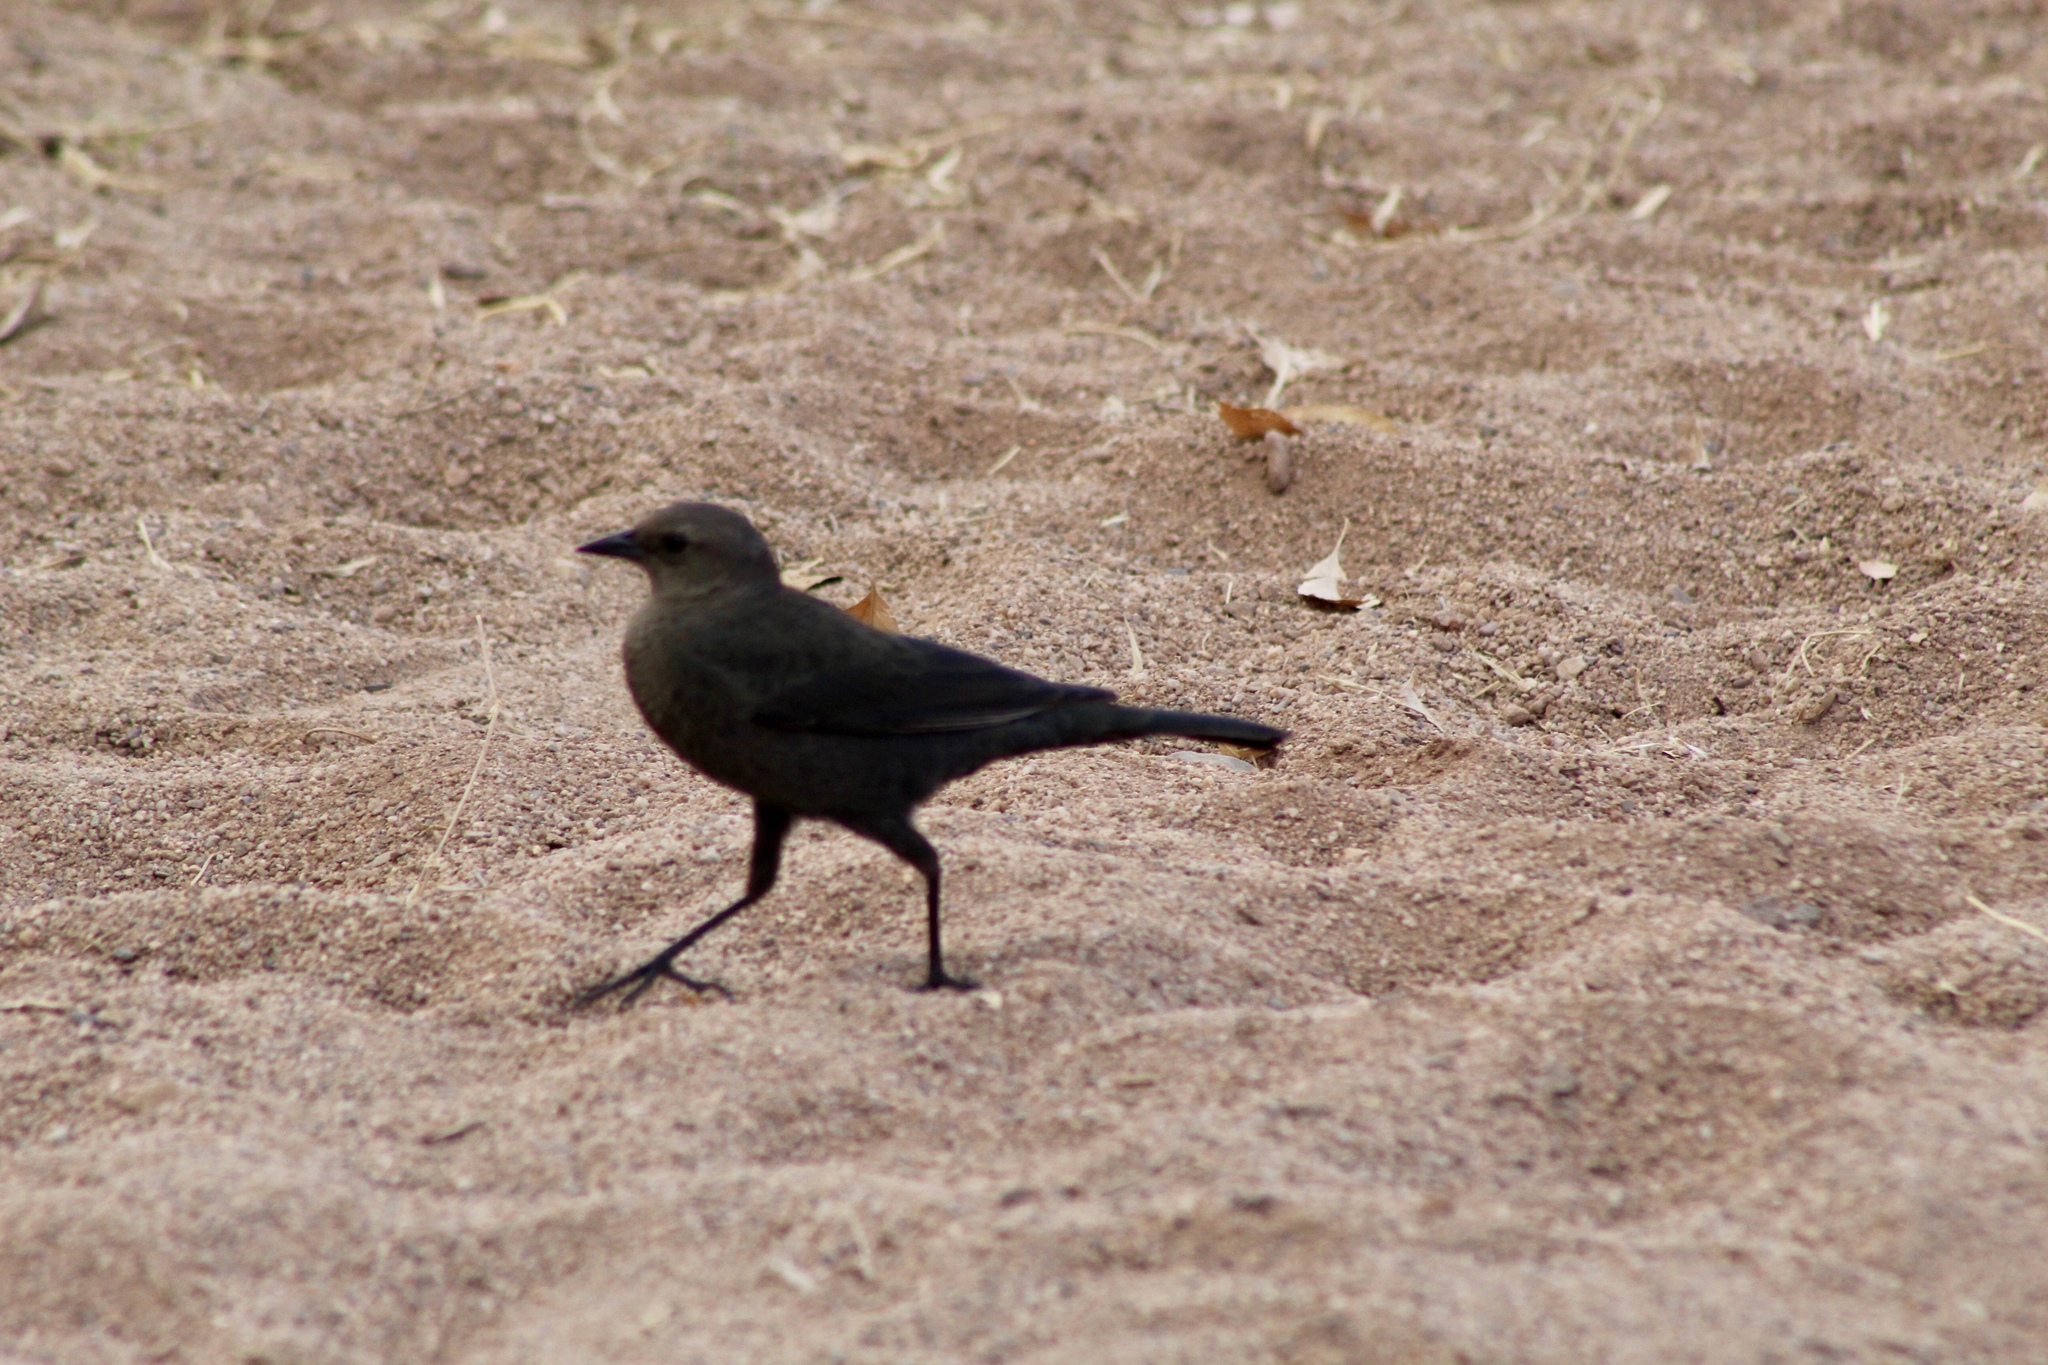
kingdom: Animalia
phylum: Chordata
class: Aves
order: Passeriformes
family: Icteridae
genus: Euphagus
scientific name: Euphagus cyanocephalus
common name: Brewer's blackbird
